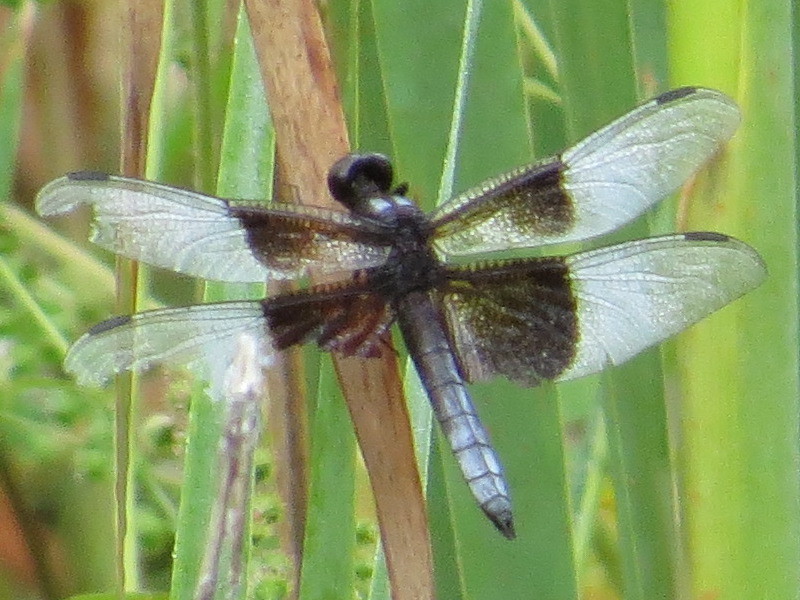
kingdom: Animalia
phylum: Arthropoda
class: Insecta
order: Odonata
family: Libellulidae
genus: Libellula
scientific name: Libellula luctuosa
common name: Widow skimmer
